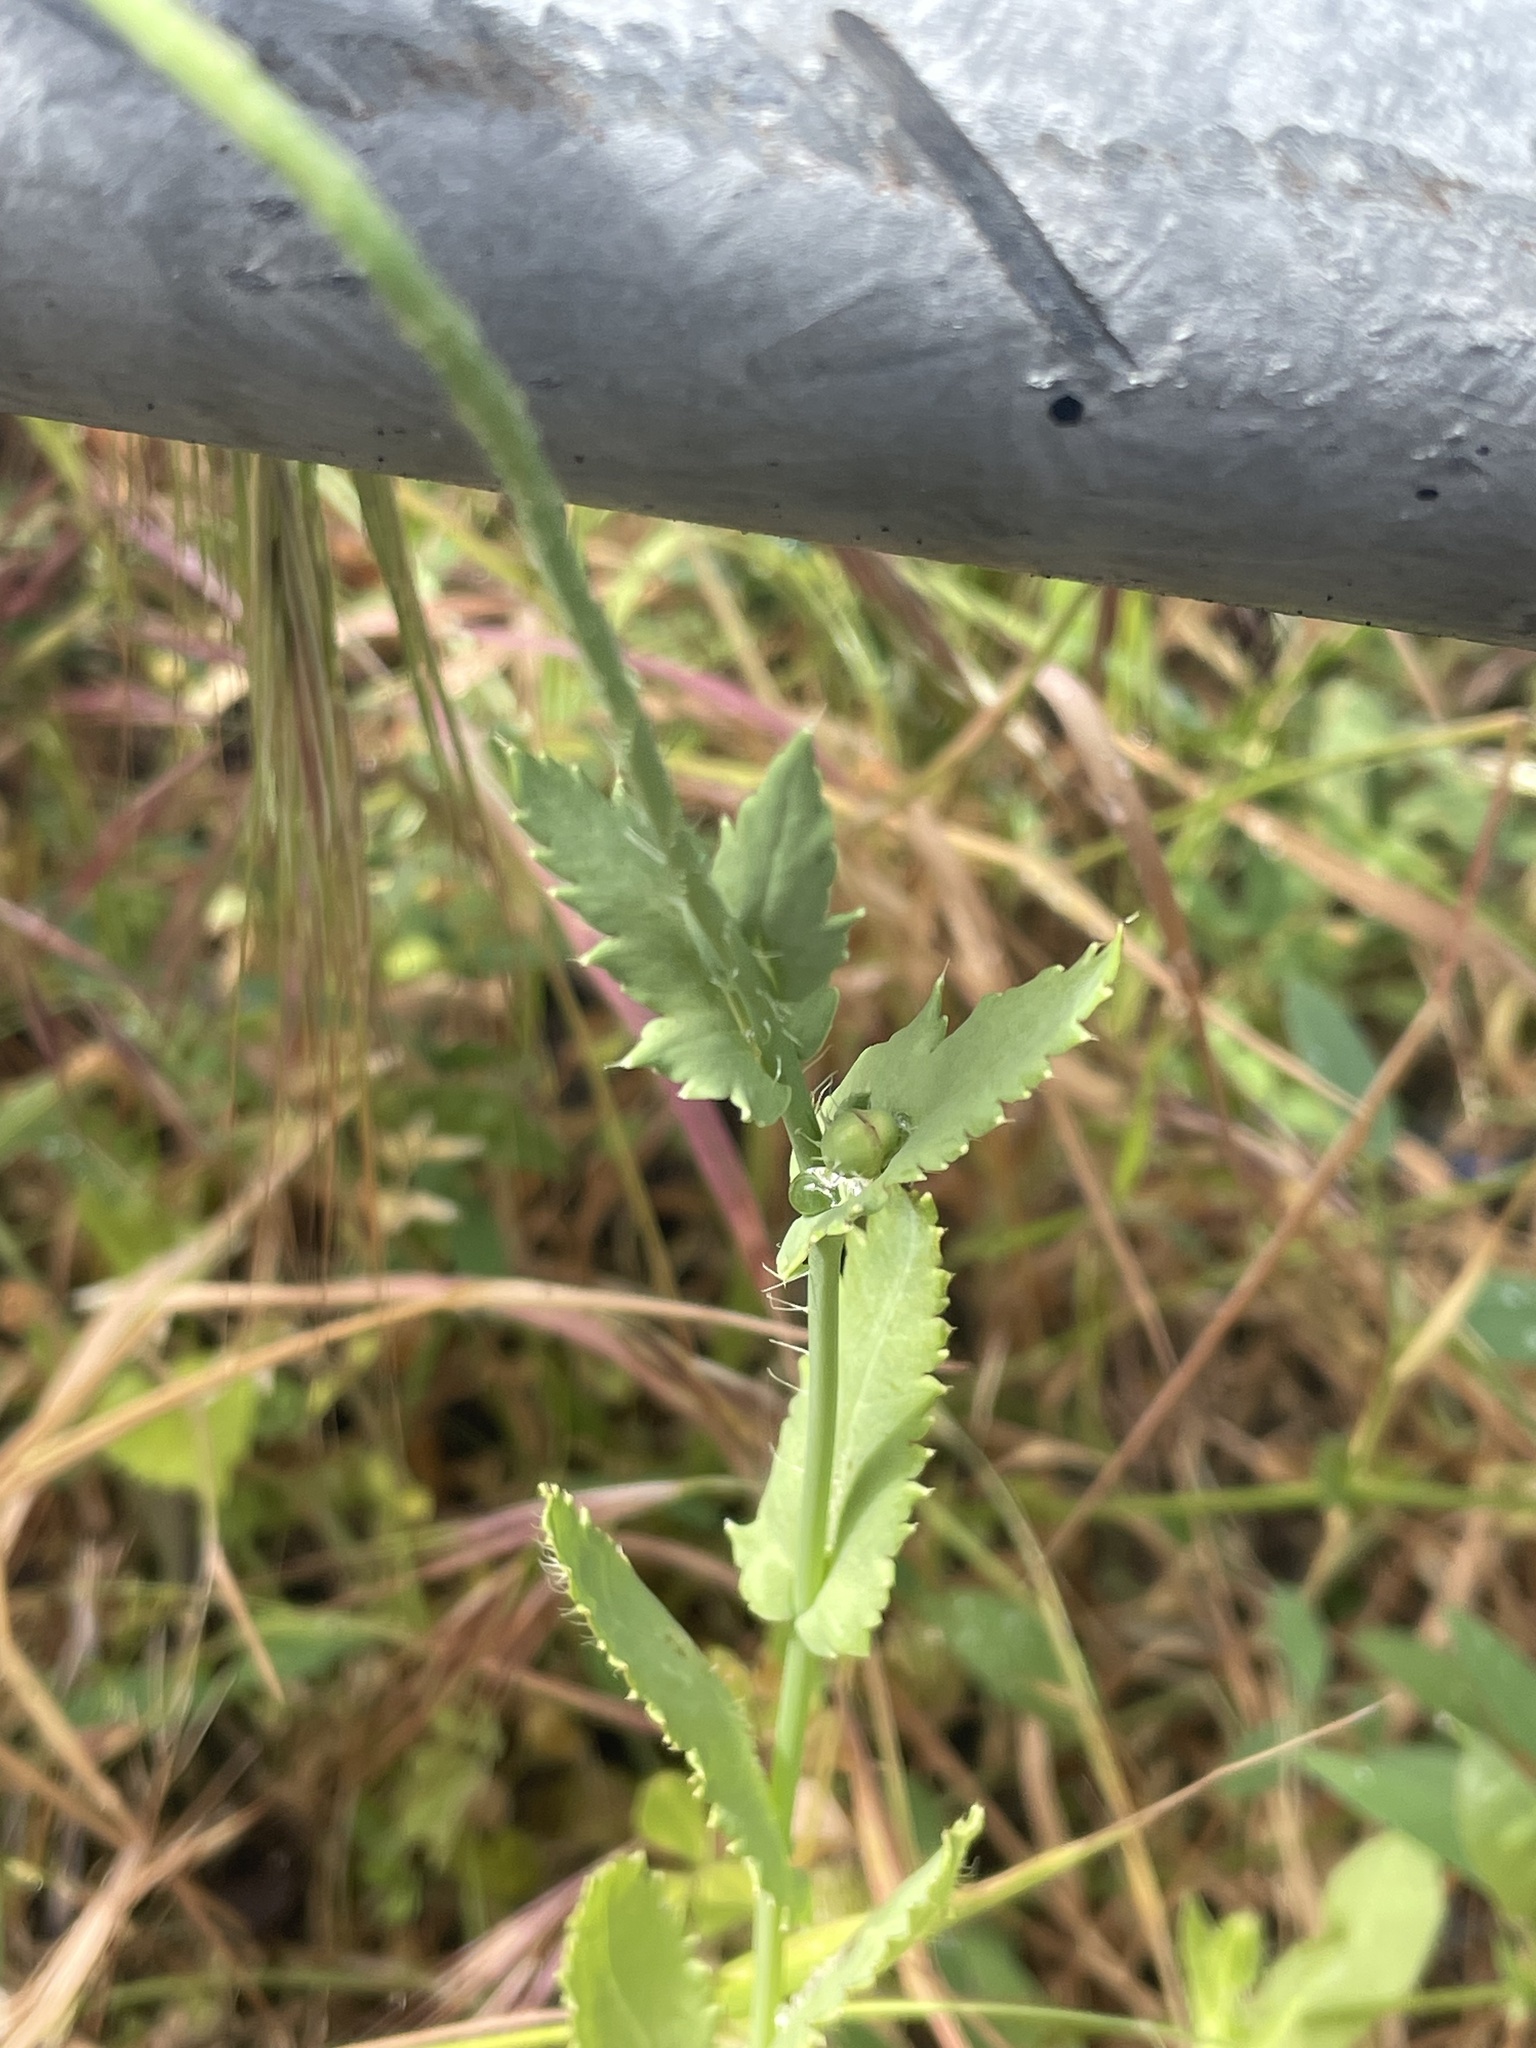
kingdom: Plantae
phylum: Tracheophyta
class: Magnoliopsida
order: Ranunculales
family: Papaveraceae
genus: Papaver
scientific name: Papaver somniferum
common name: Opium poppy
